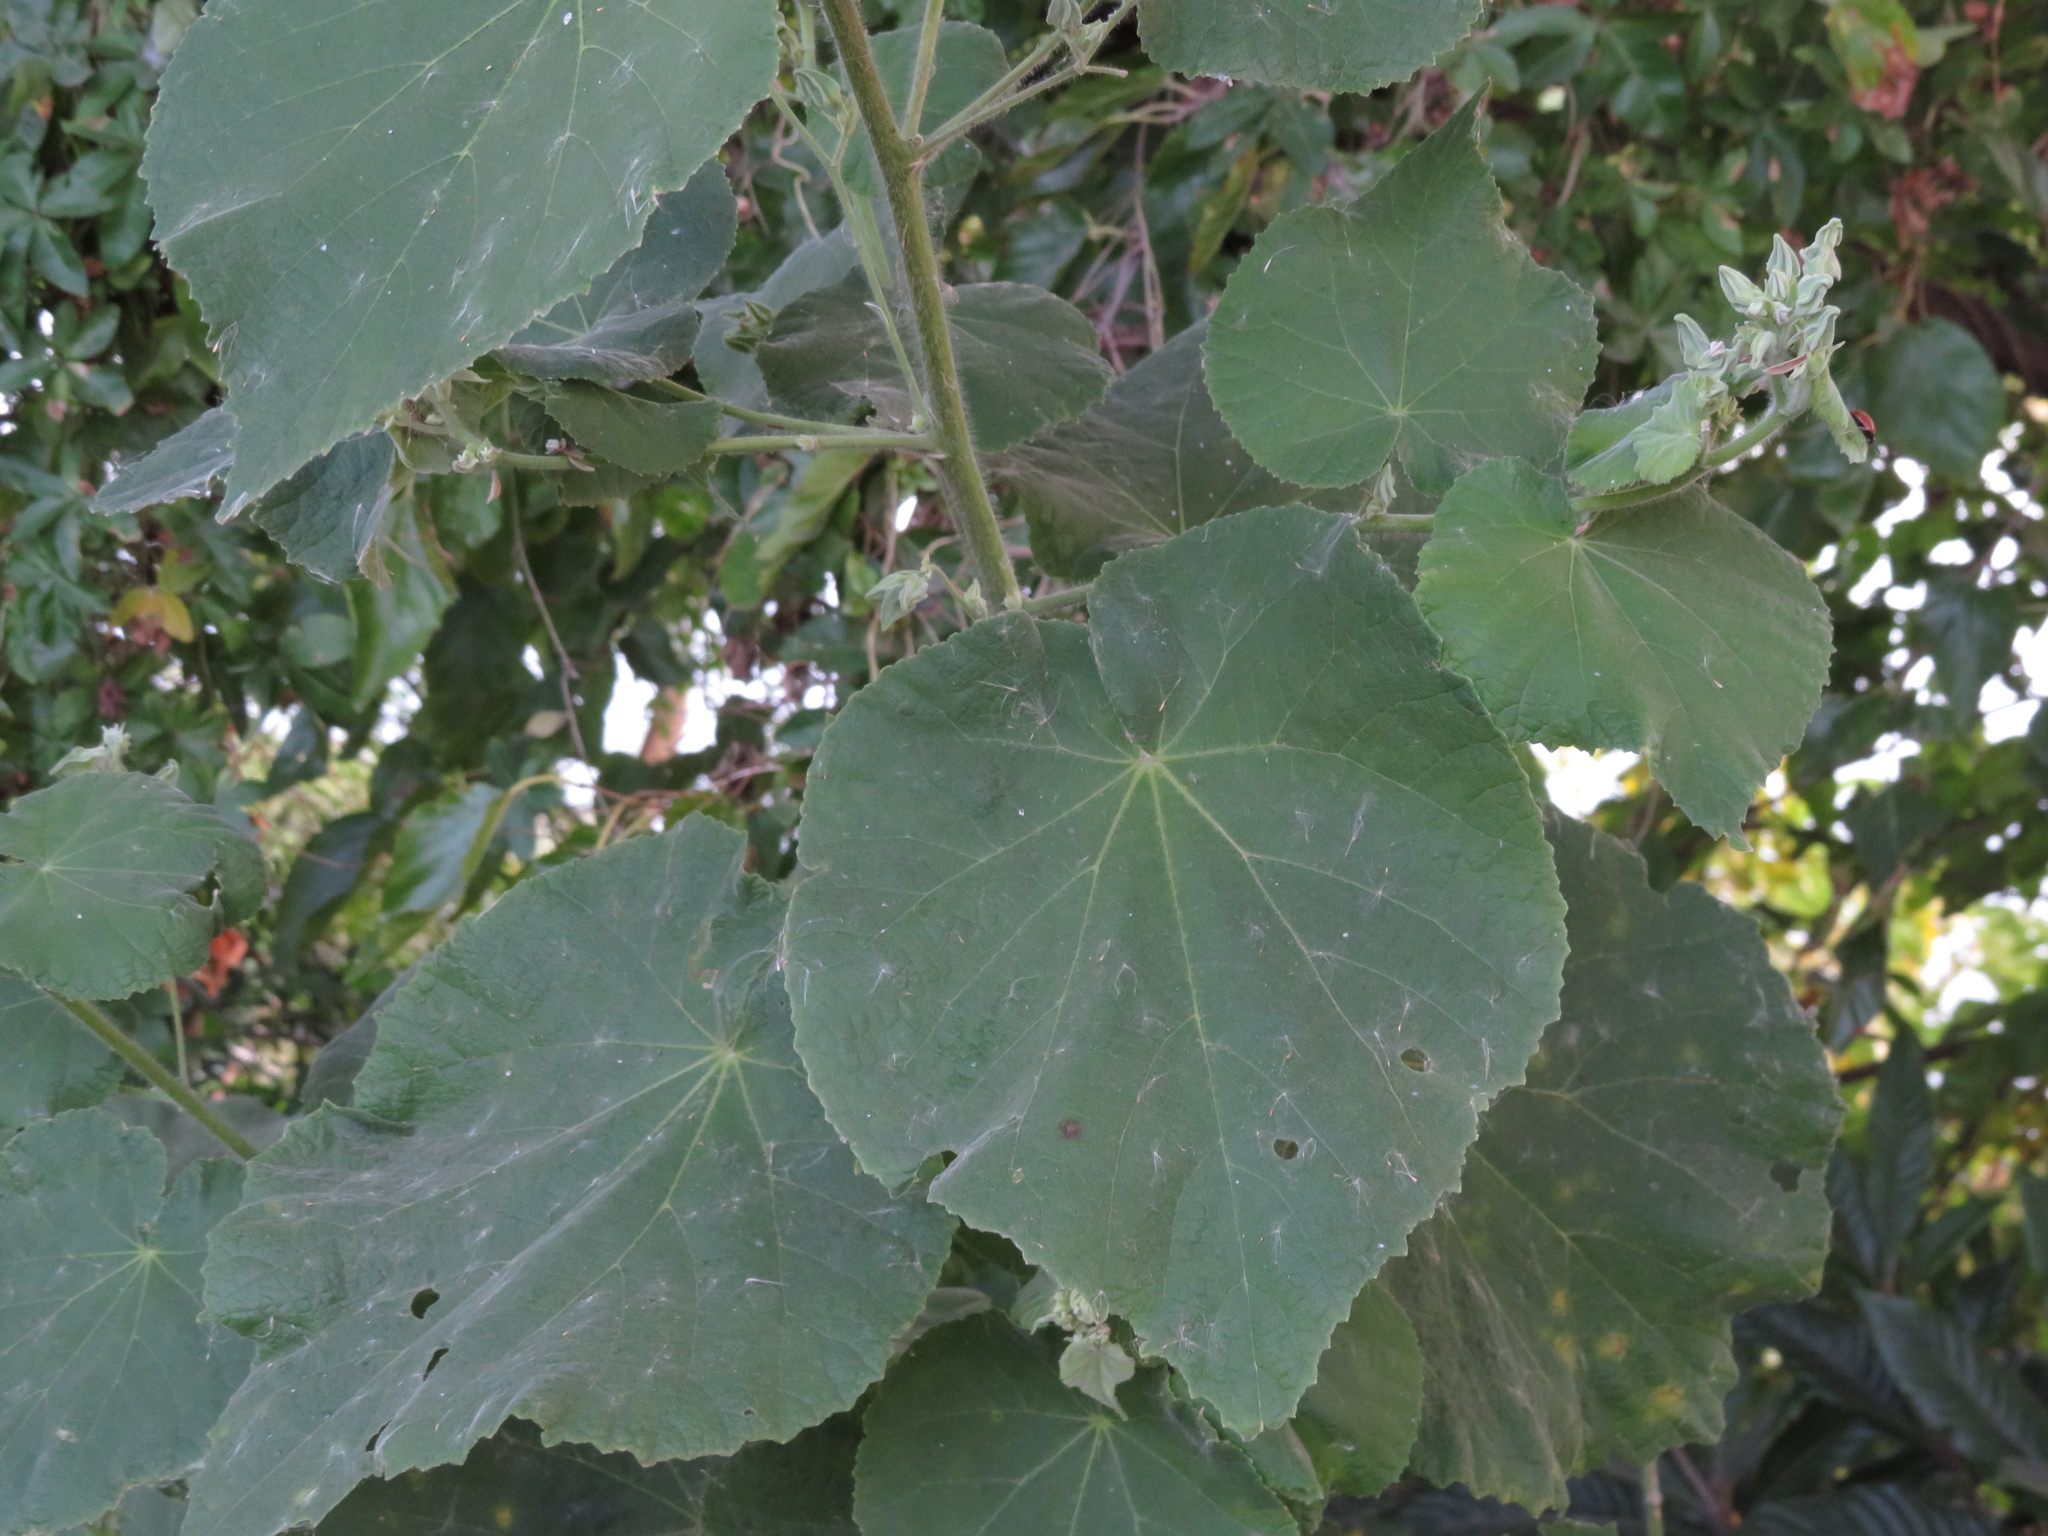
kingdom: Plantae
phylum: Tracheophyta
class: Magnoliopsida
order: Malvales
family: Malvaceae
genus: Abutilon
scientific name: Abutilon grandifolium
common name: Hairy abutilon
